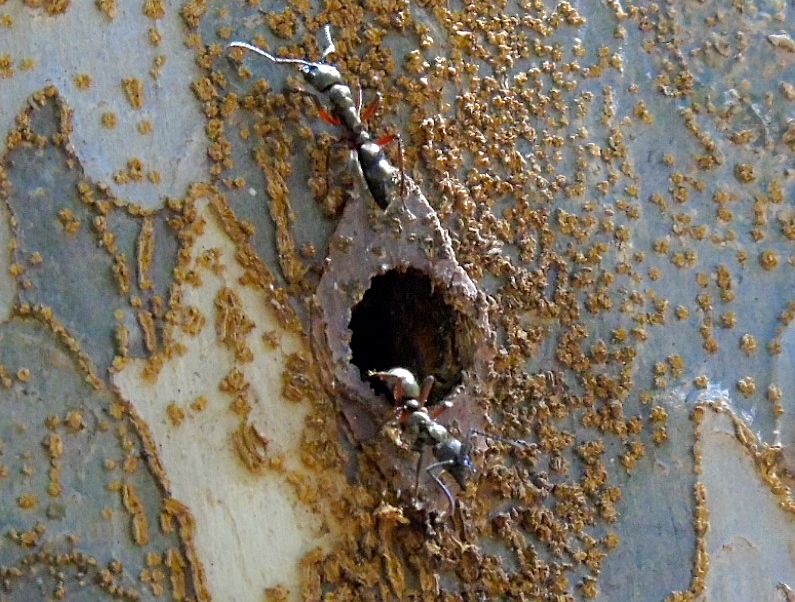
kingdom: Animalia
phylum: Arthropoda
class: Insecta
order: Hymenoptera
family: Formicidae
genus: Pachycondyla
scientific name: Pachycondyla villosa
